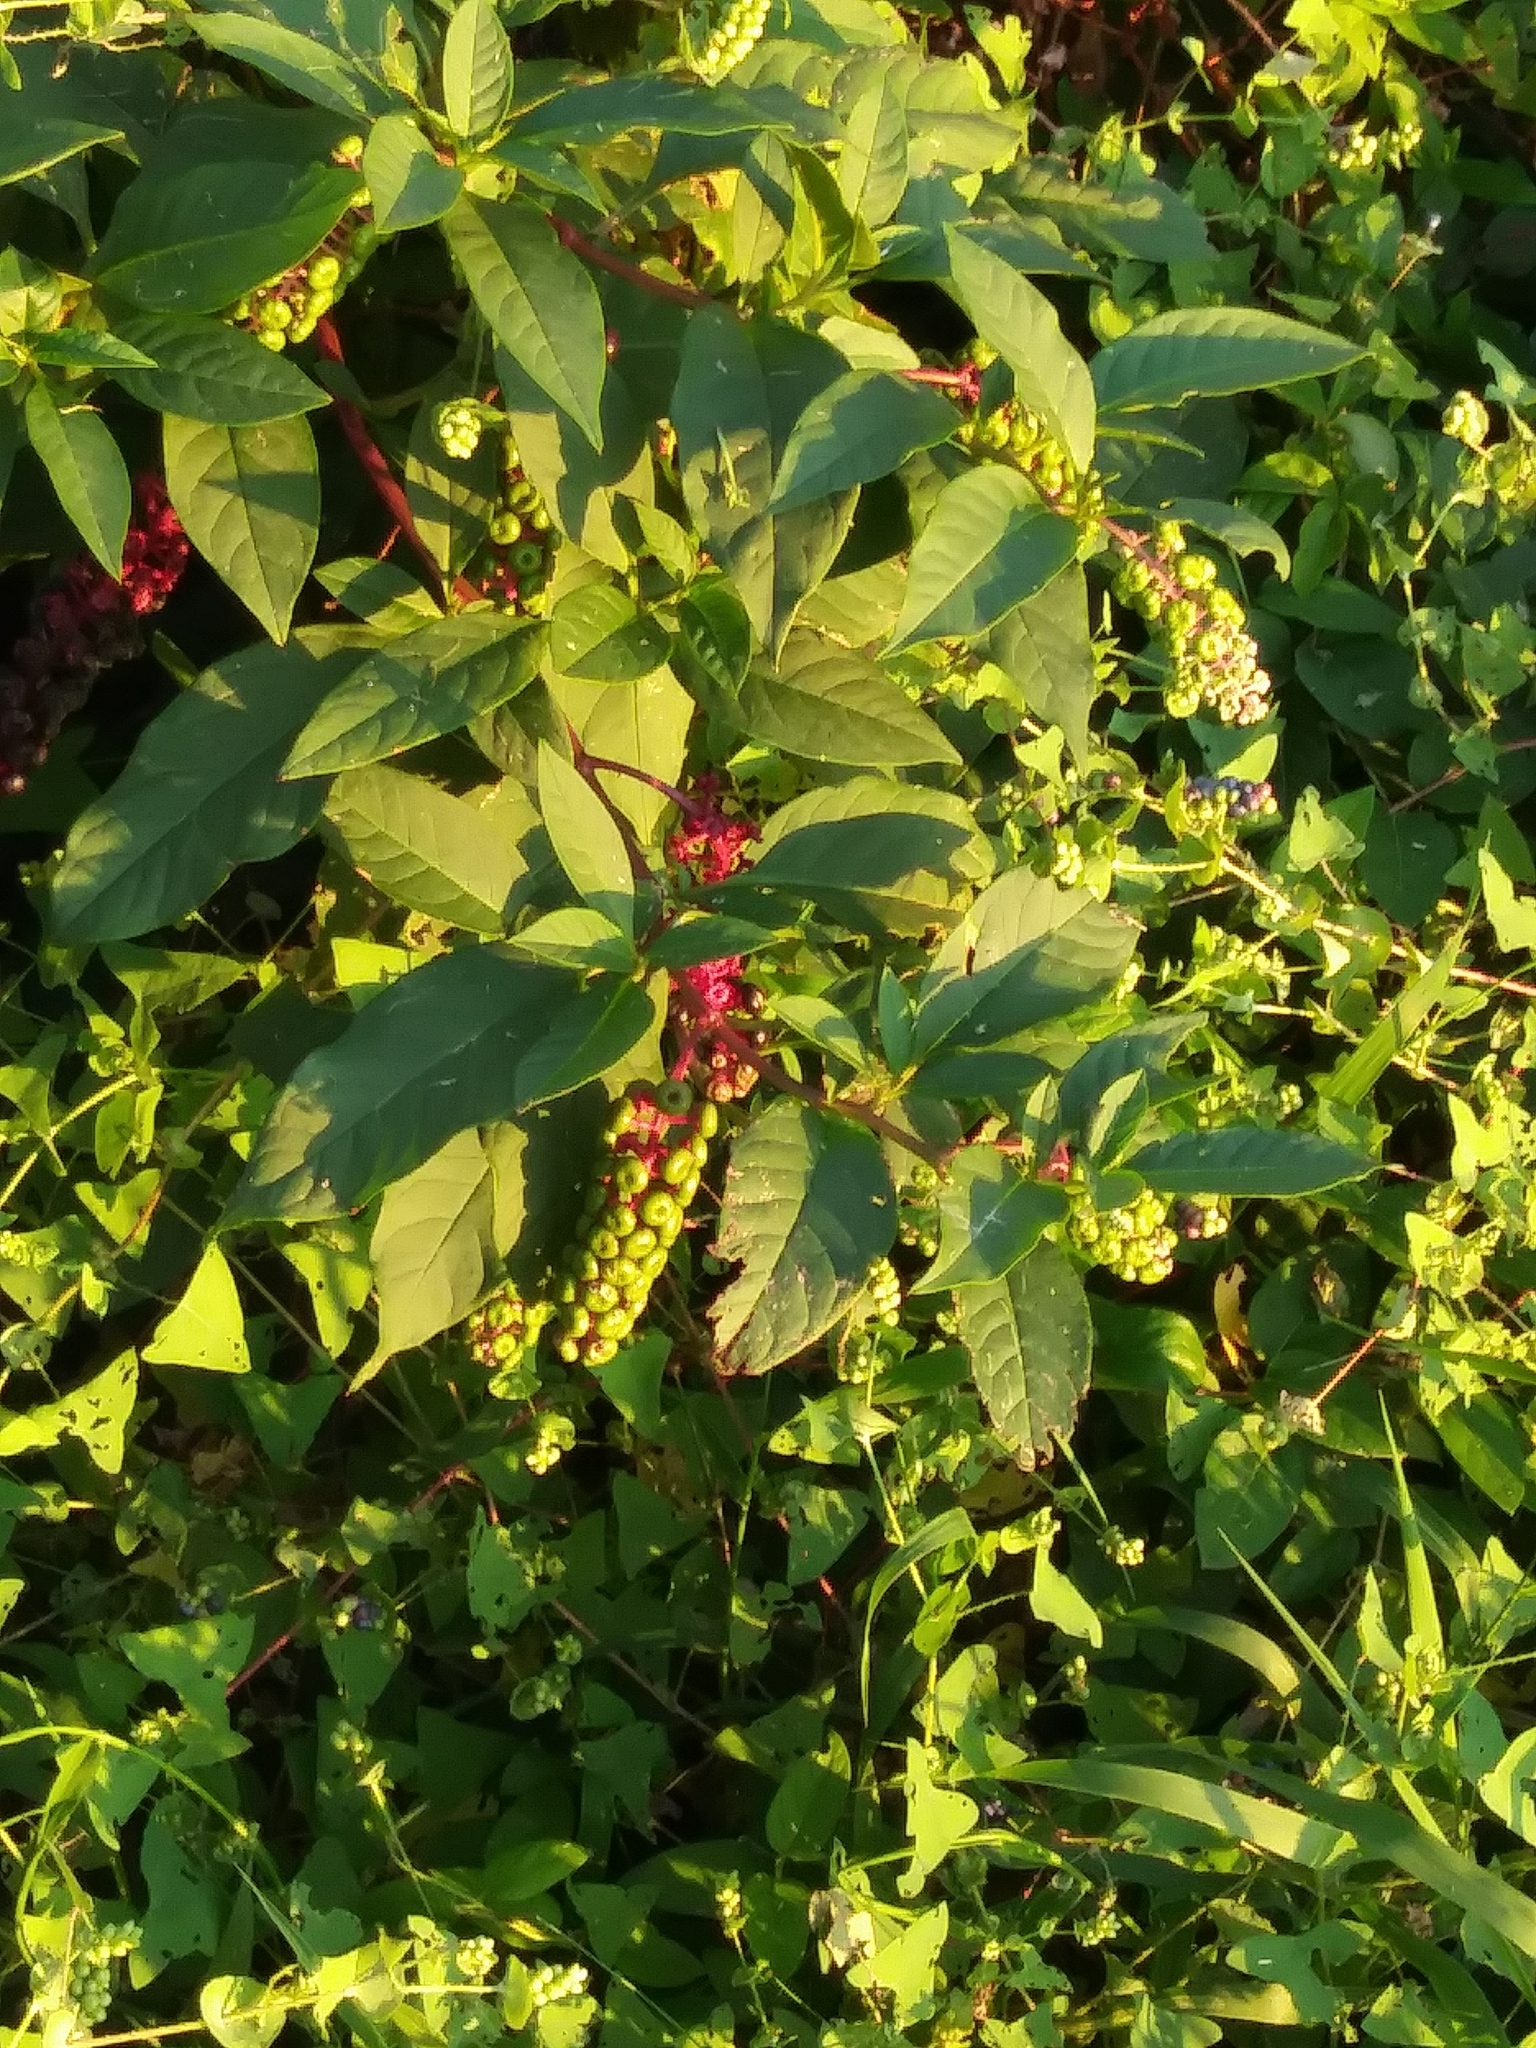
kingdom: Plantae
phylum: Tracheophyta
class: Magnoliopsida
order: Caryophyllales
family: Phytolaccaceae
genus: Phytolacca
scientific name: Phytolacca americana
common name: American pokeweed
